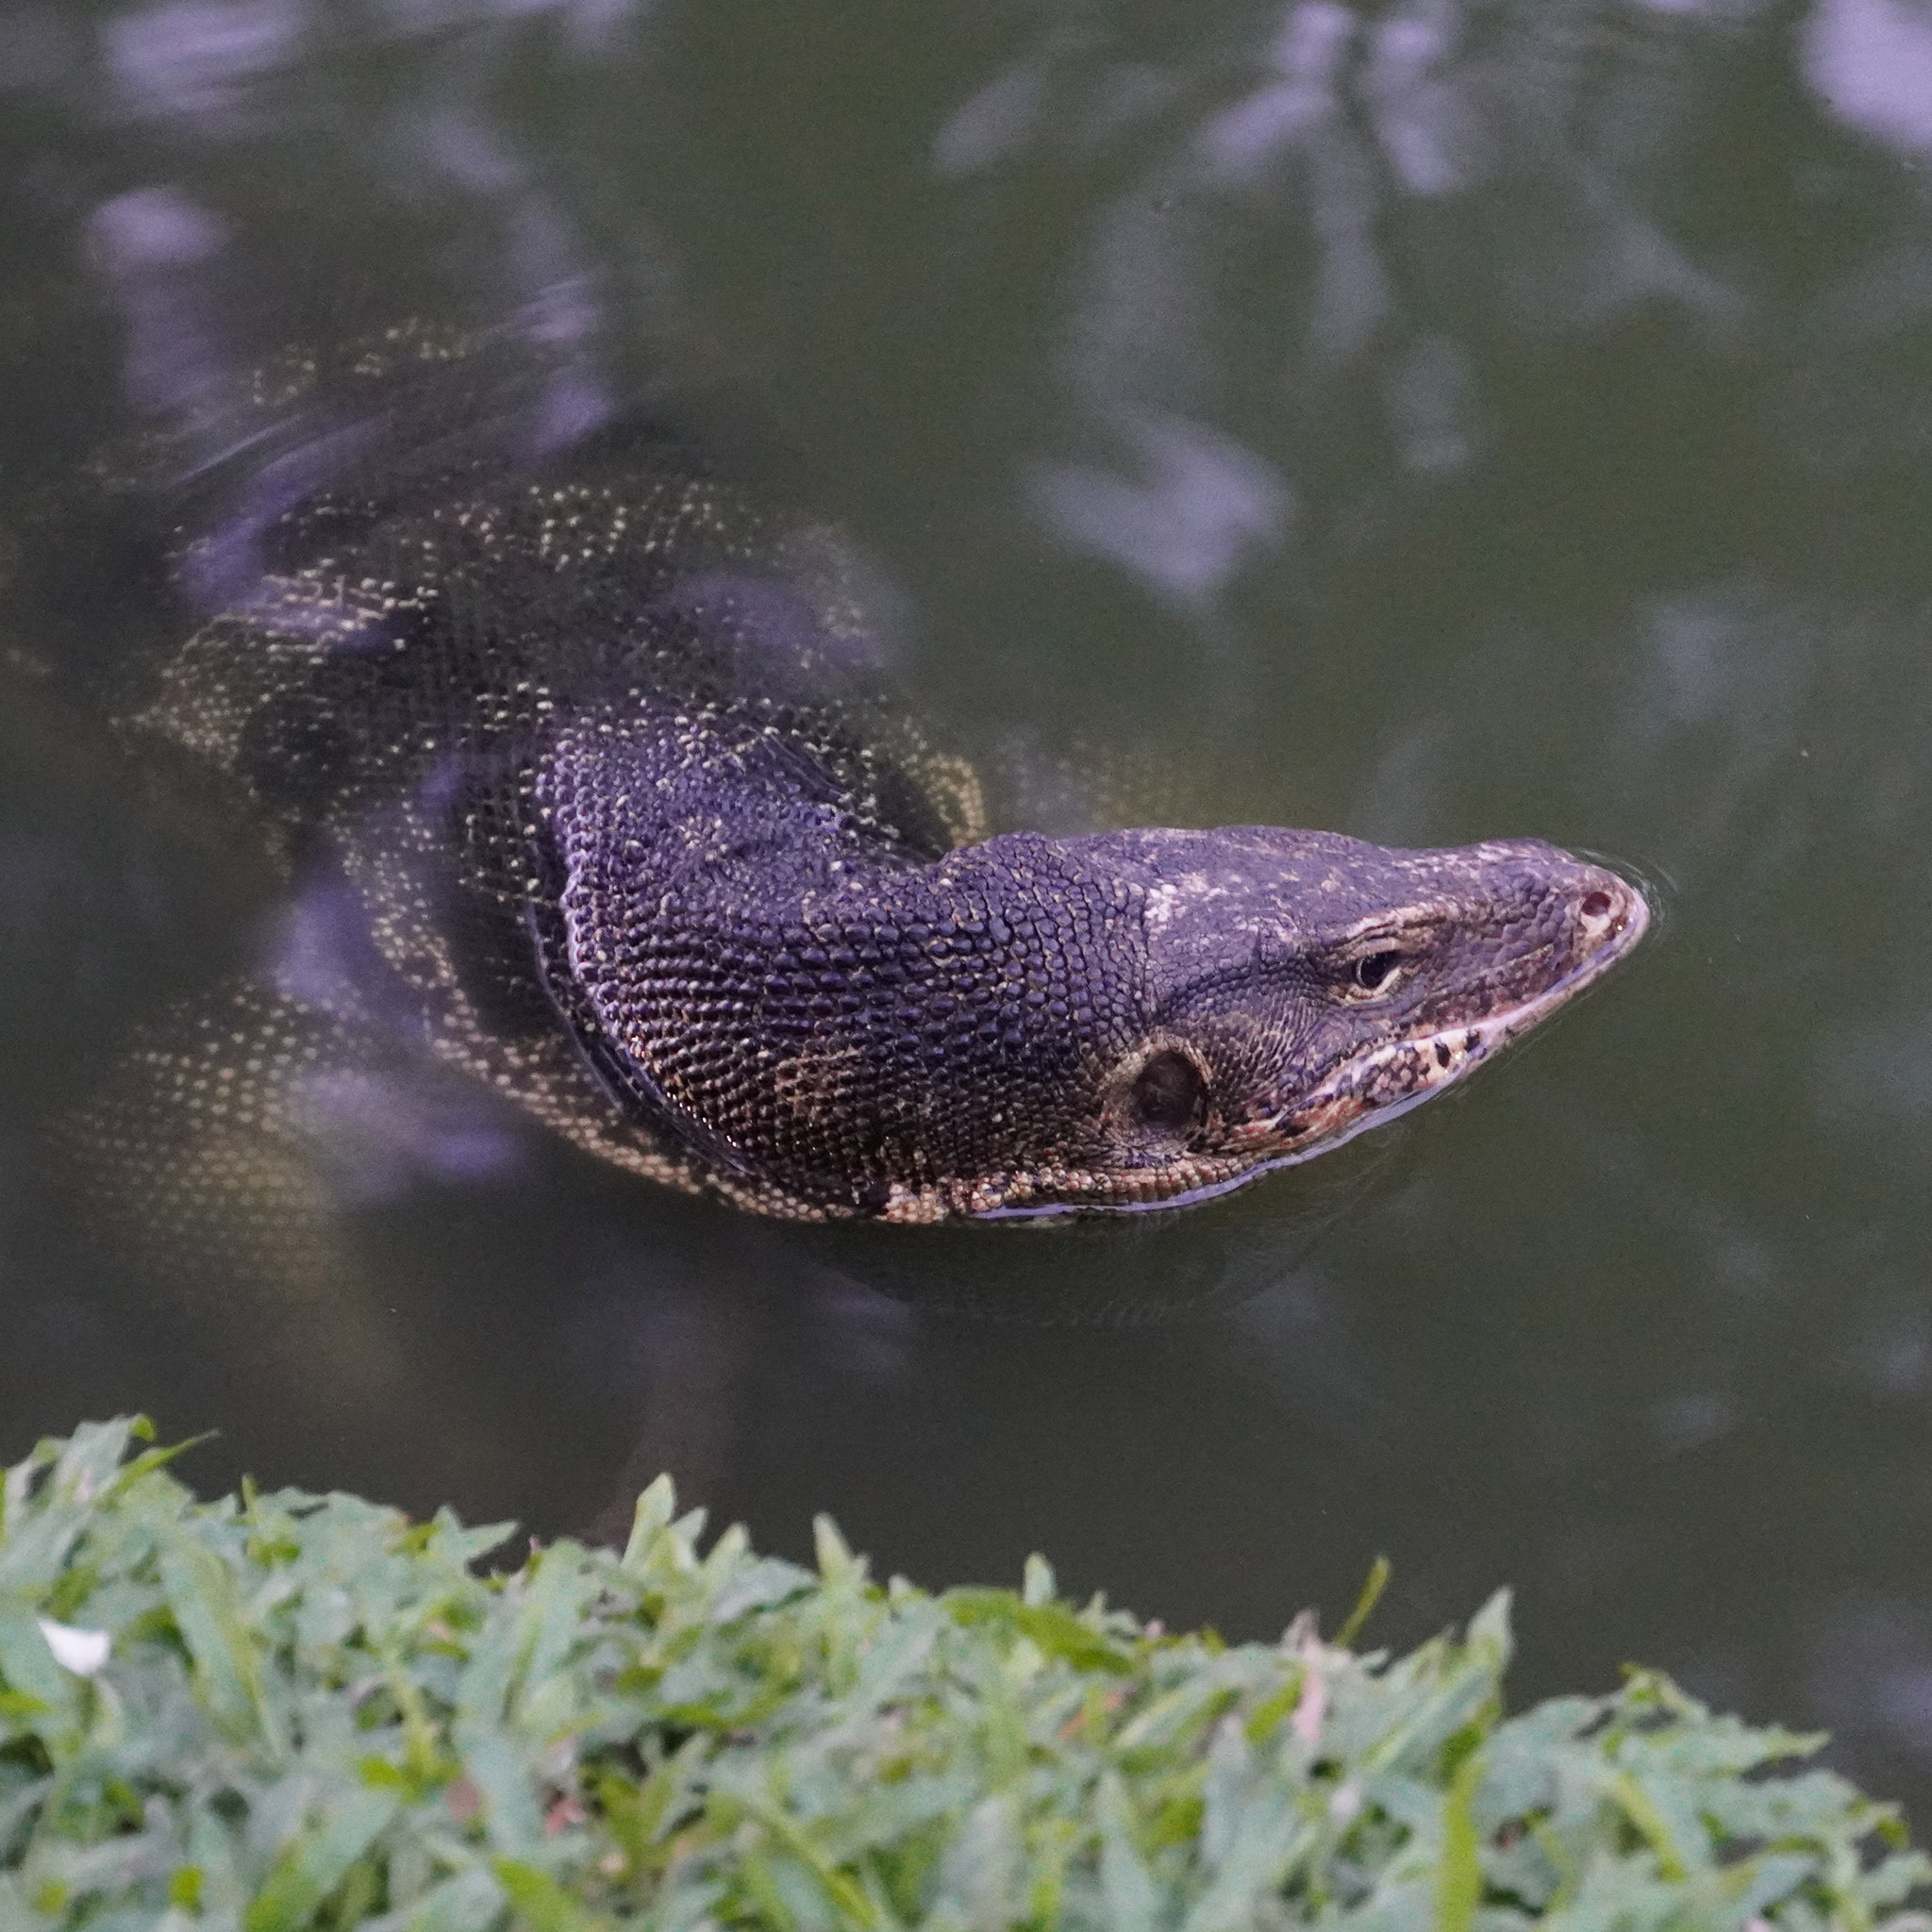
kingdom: Animalia
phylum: Chordata
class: Squamata
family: Varanidae
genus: Varanus
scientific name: Varanus salvator
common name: Common water monitor
